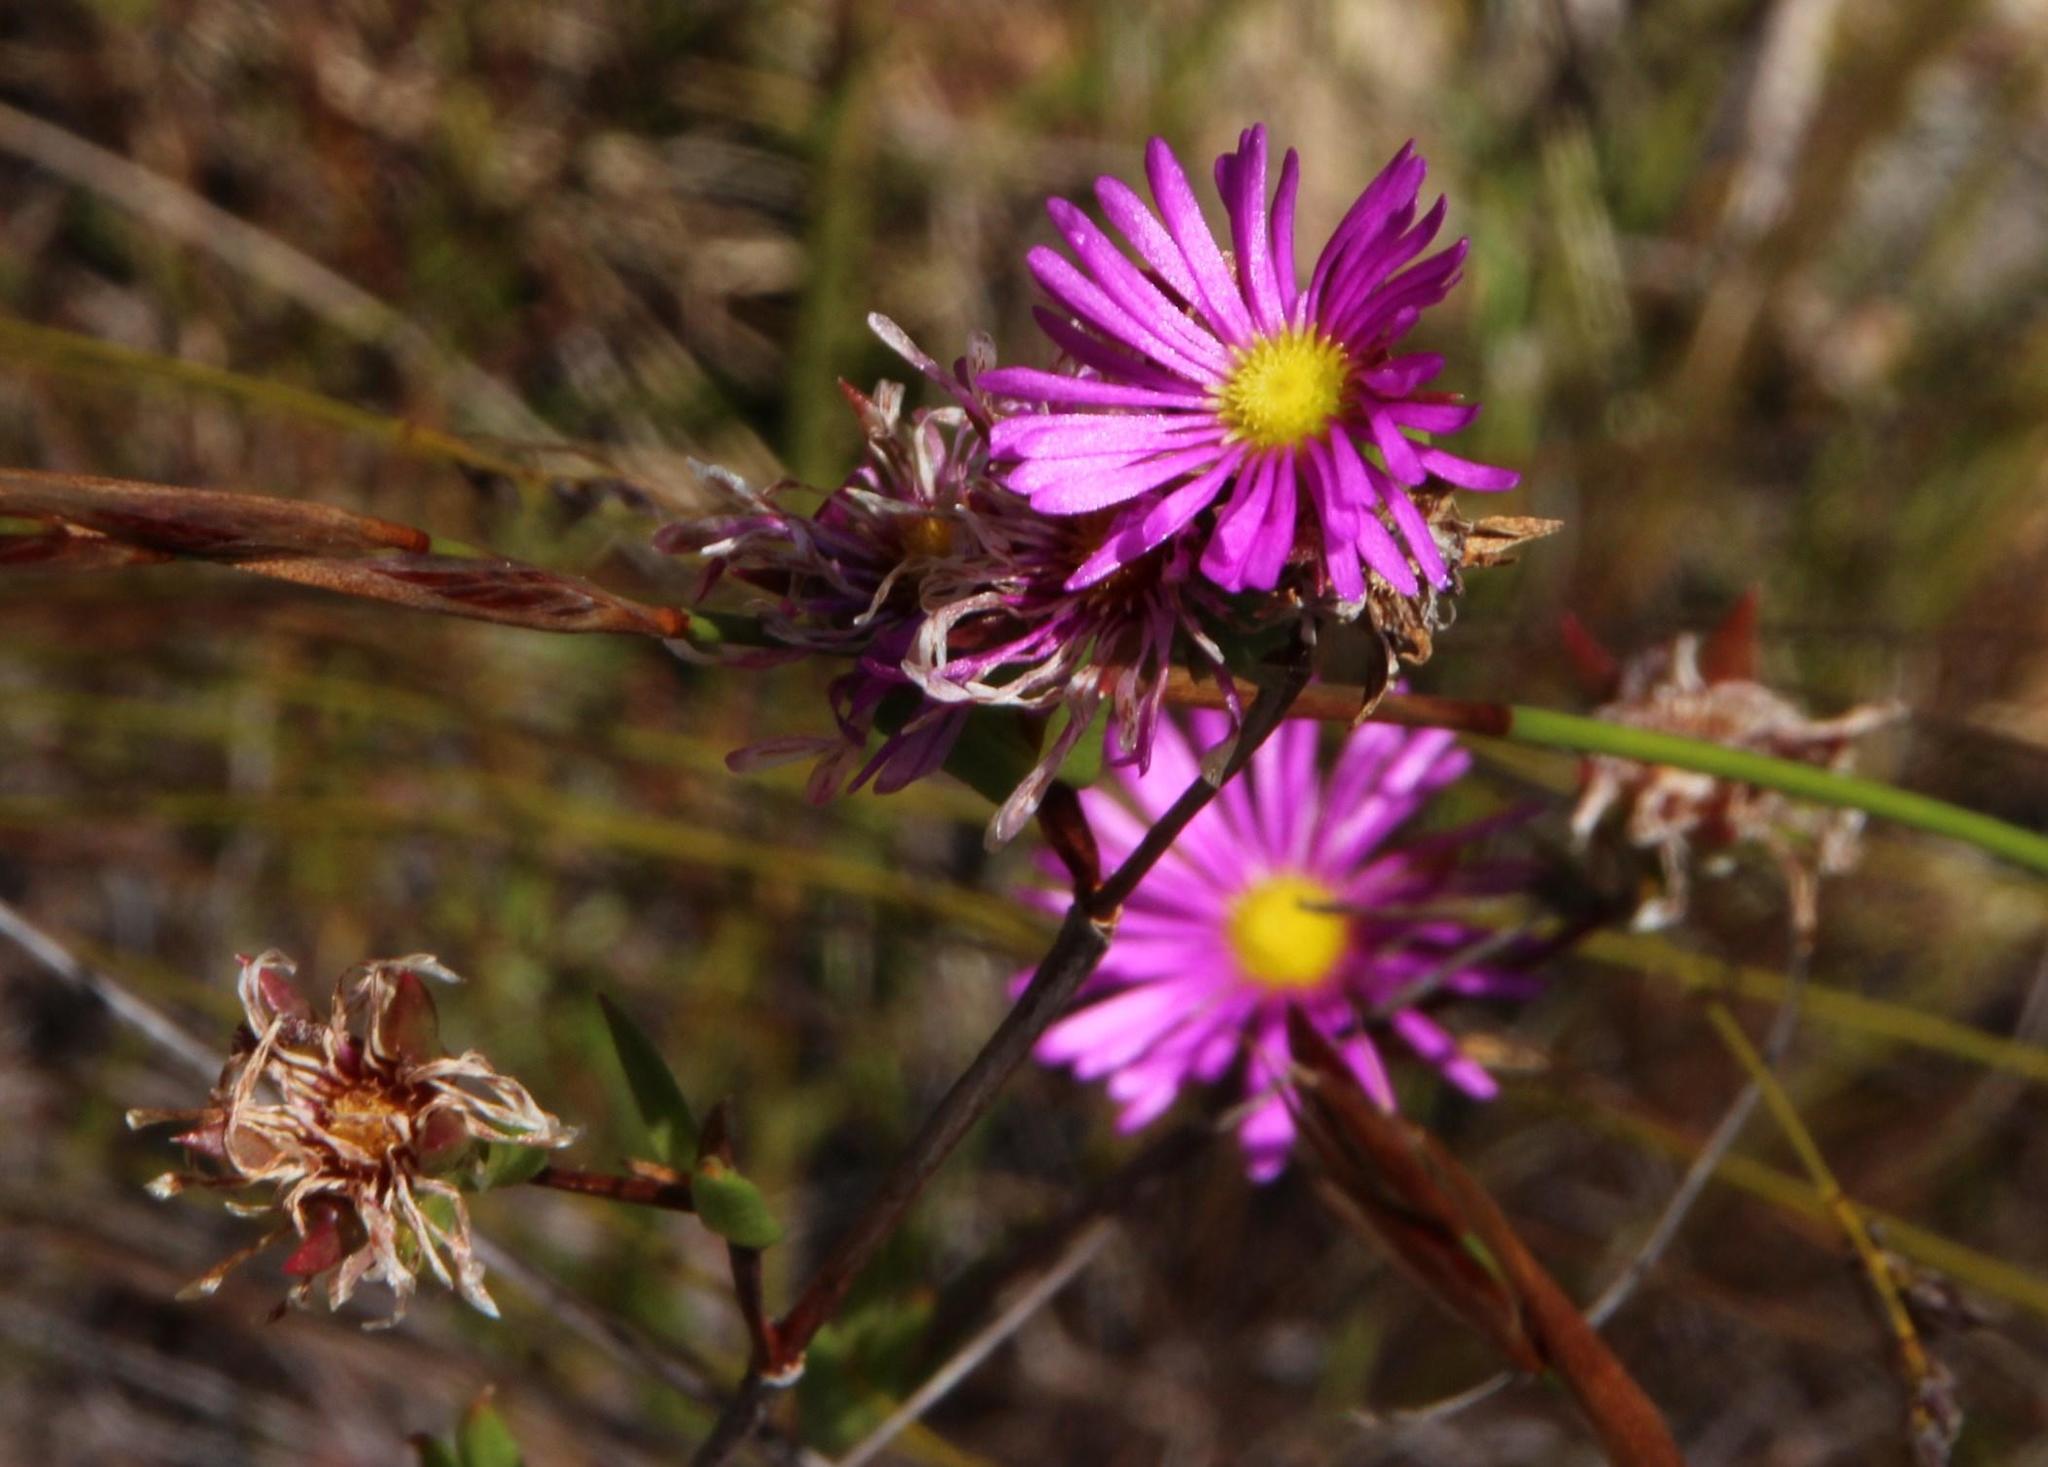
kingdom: Plantae
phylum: Tracheophyta
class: Magnoliopsida
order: Caryophyllales
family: Aizoaceae
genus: Erepsia
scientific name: Erepsia anceps
